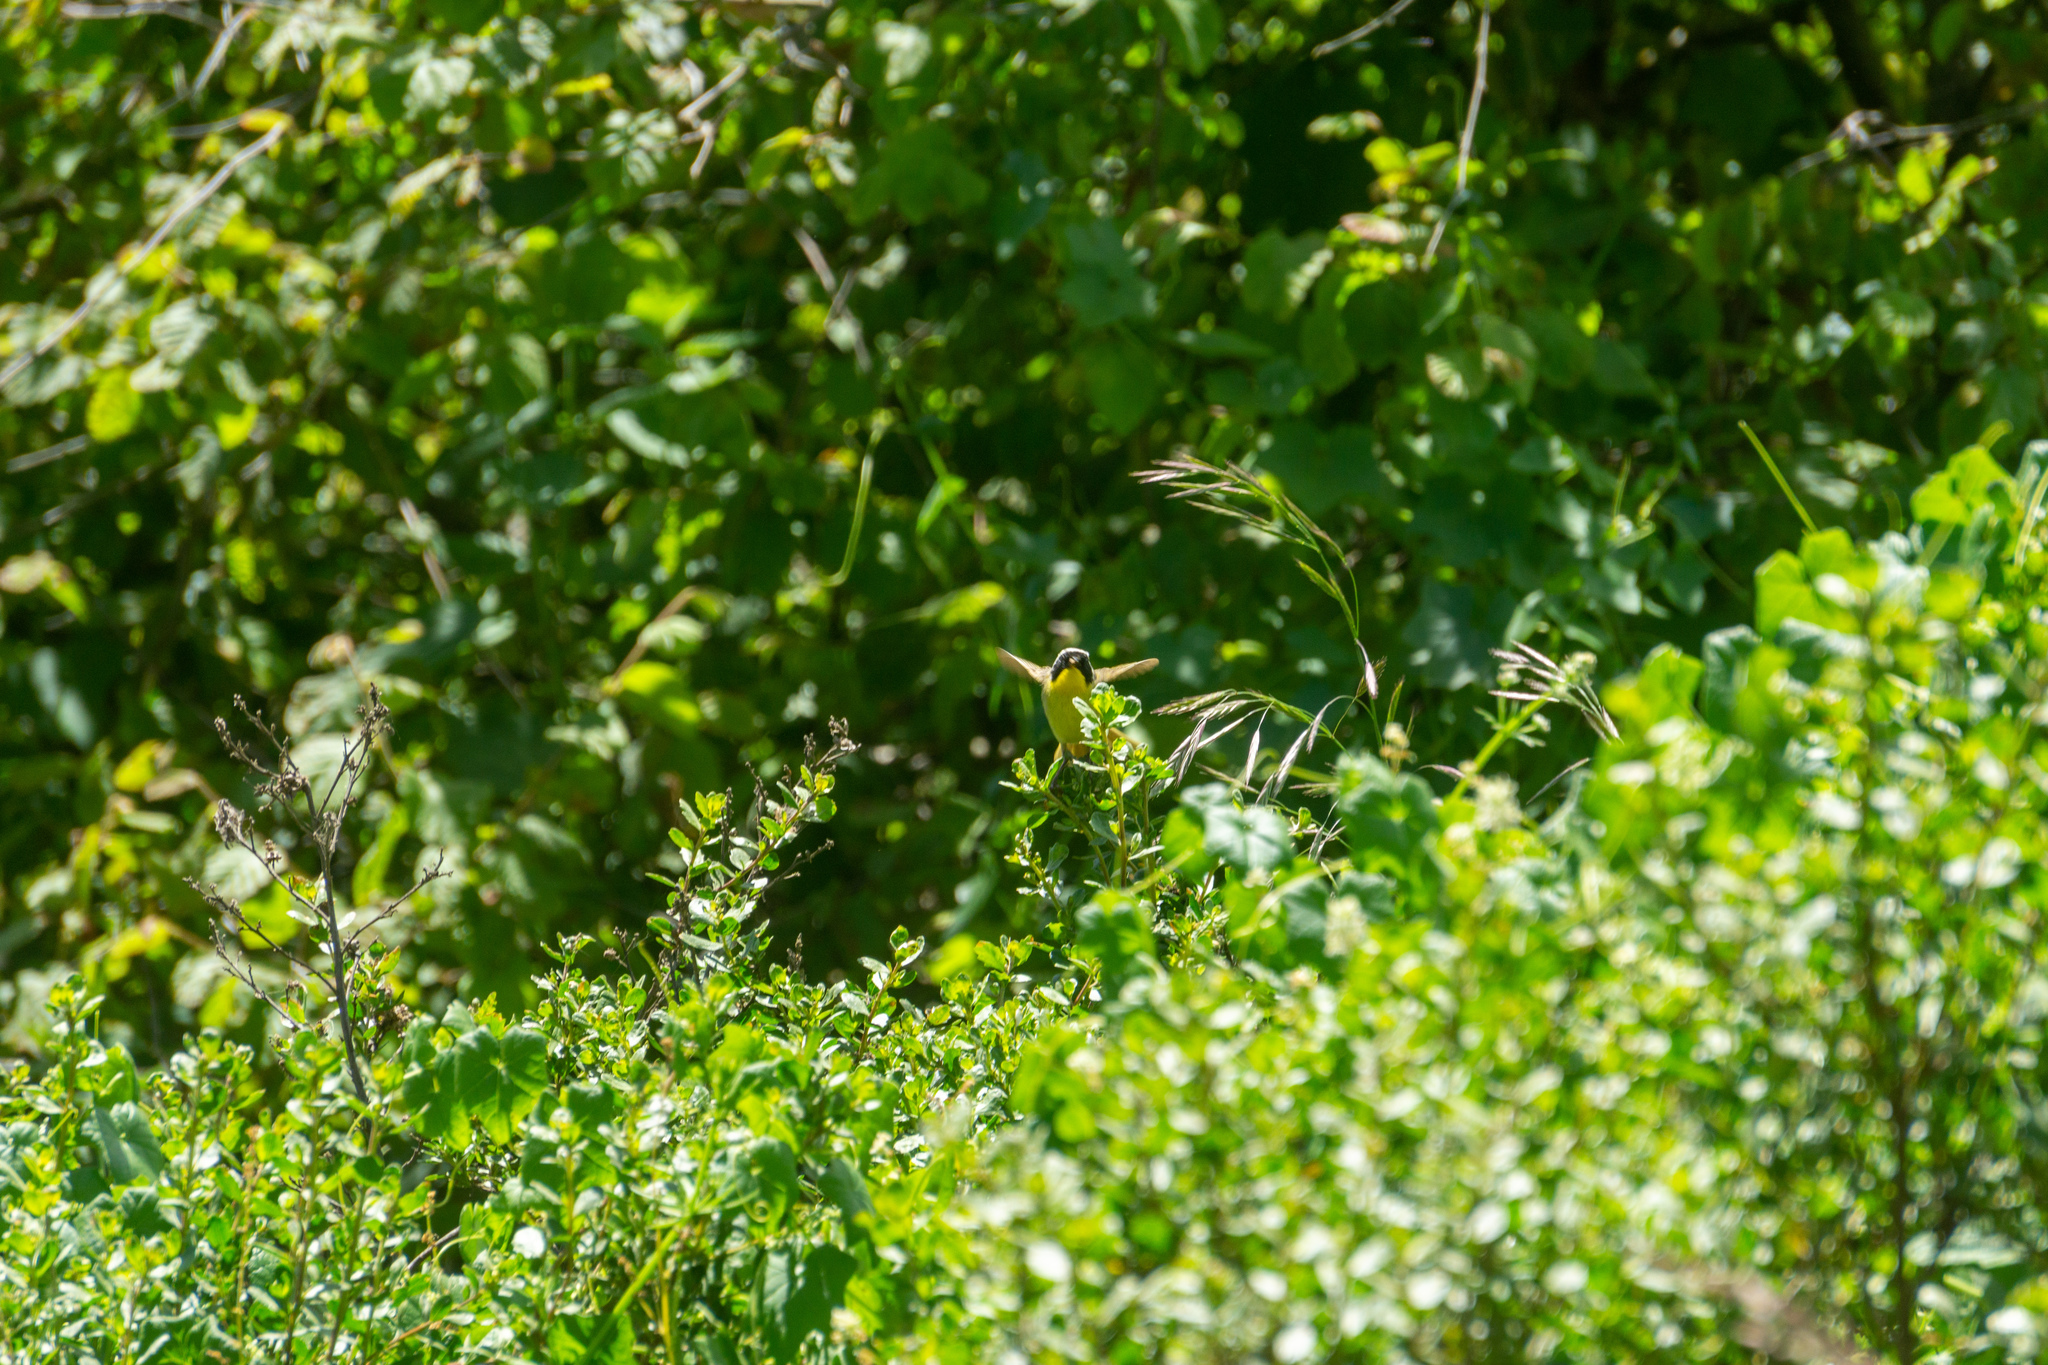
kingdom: Animalia
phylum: Chordata
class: Aves
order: Passeriformes
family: Parulidae
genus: Geothlypis
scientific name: Geothlypis trichas
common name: Common yellowthroat
